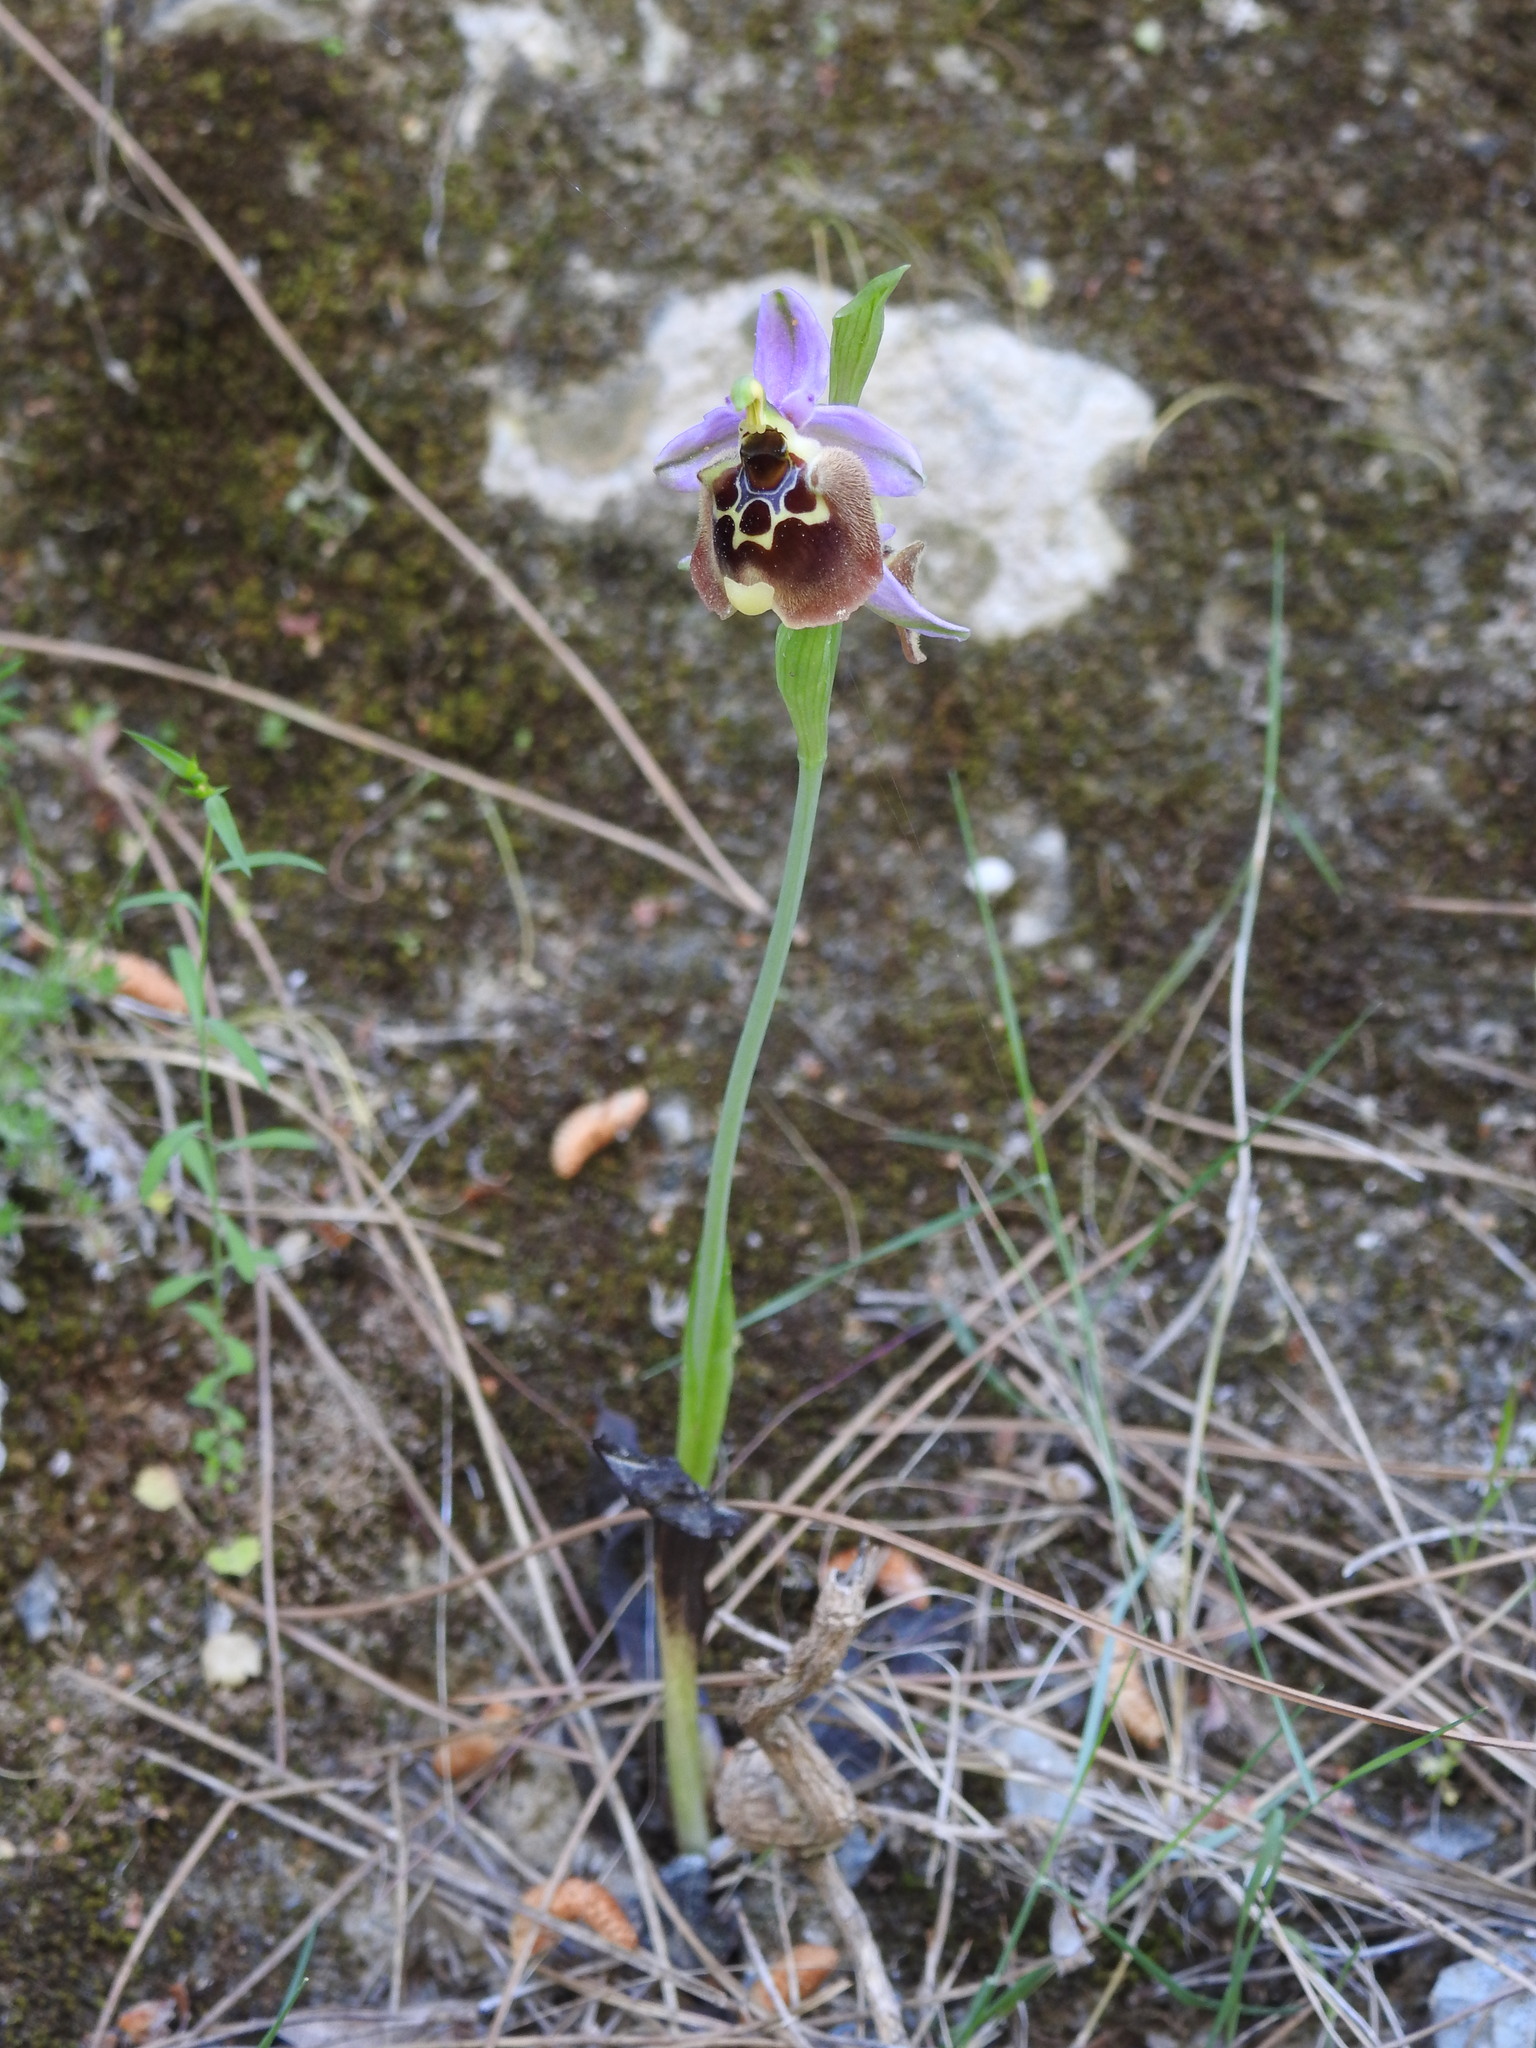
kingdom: Plantae
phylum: Tracheophyta
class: Liliopsida
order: Asparagales
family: Orchidaceae
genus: Ophrys
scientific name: Ophrys holosericea
